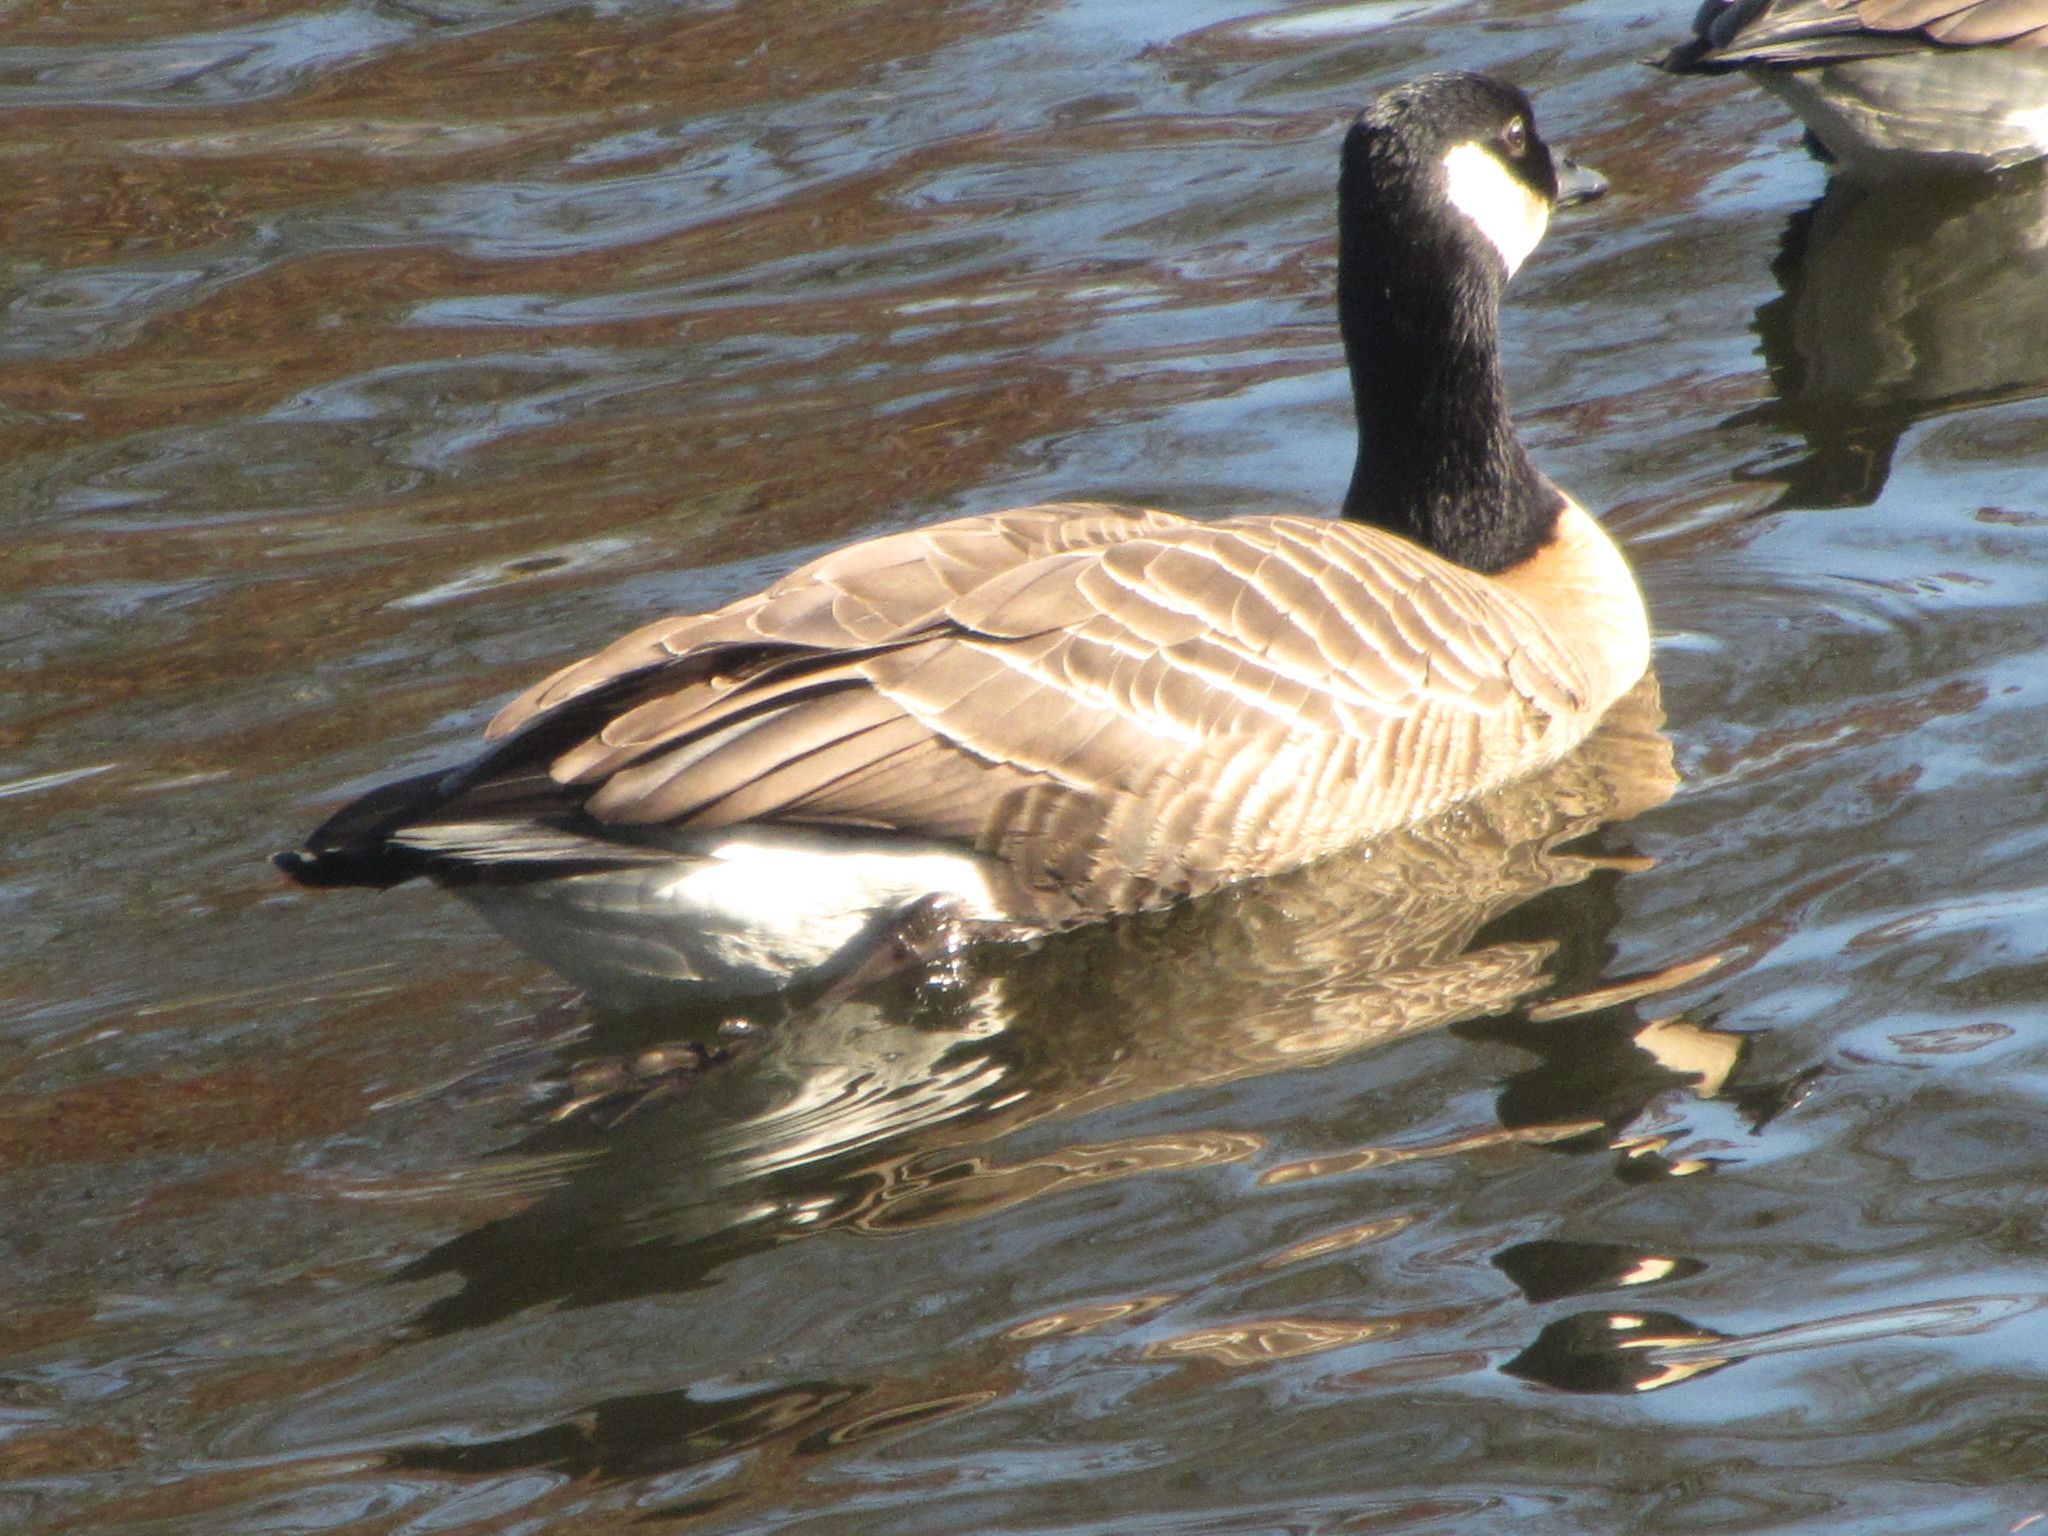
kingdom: Animalia
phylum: Chordata
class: Aves
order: Anseriformes
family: Anatidae
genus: Branta
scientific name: Branta hutchinsii
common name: Cackling goose
